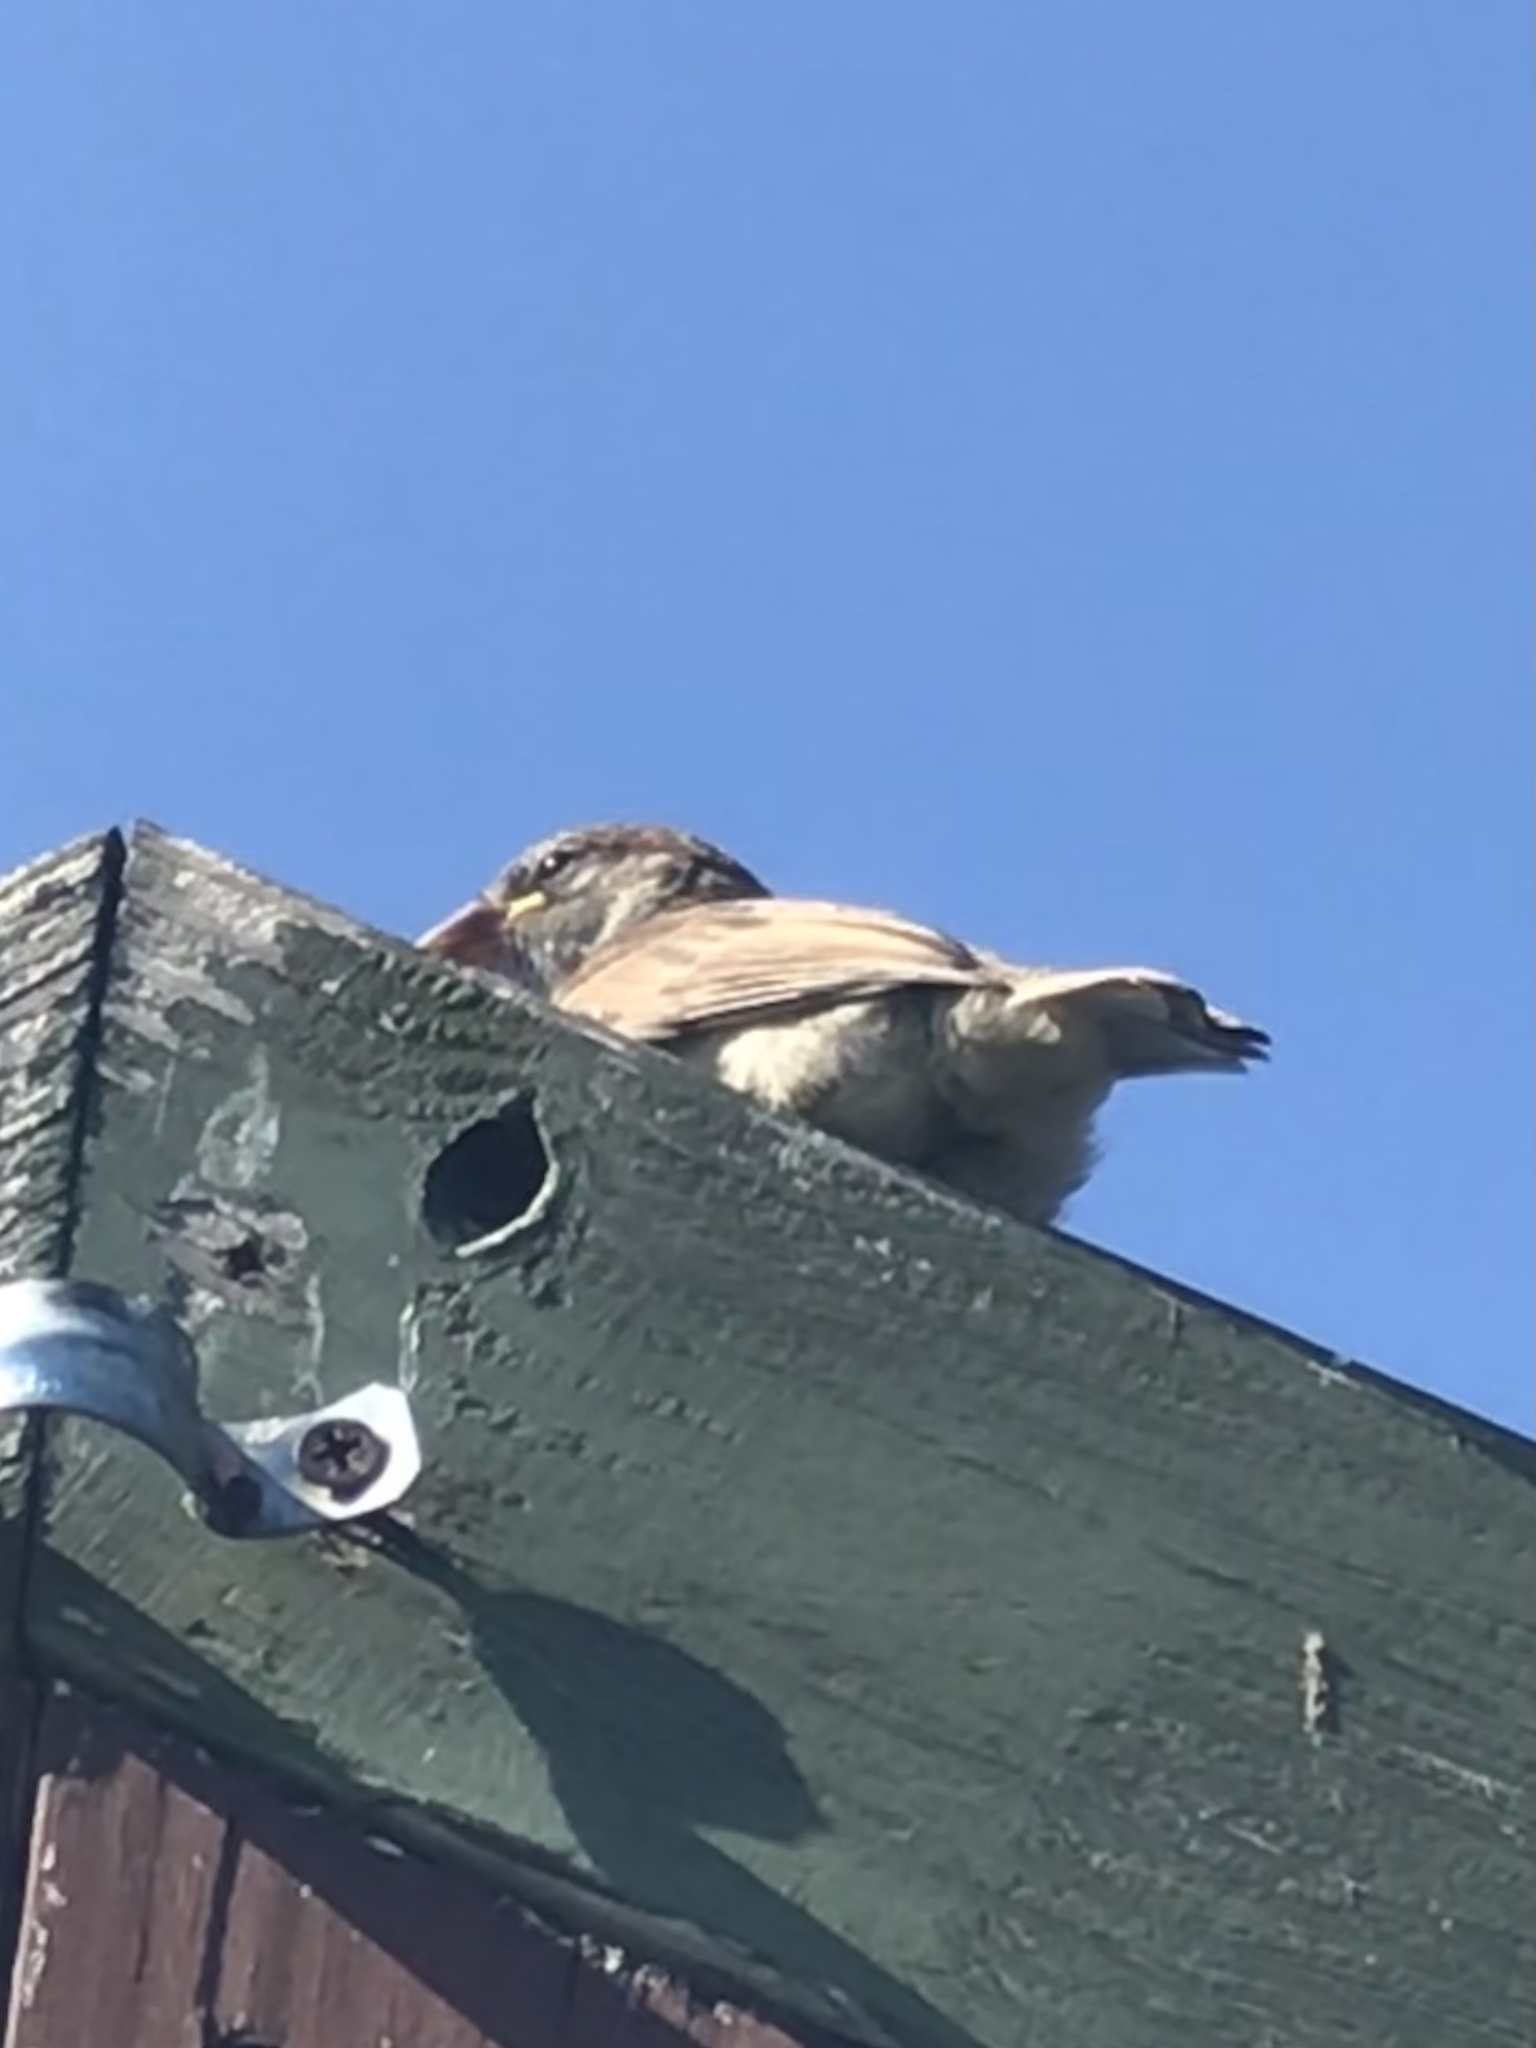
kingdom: Animalia
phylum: Chordata
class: Aves
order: Passeriformes
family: Passeridae
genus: Passer
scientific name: Passer domesticus
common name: House sparrow
